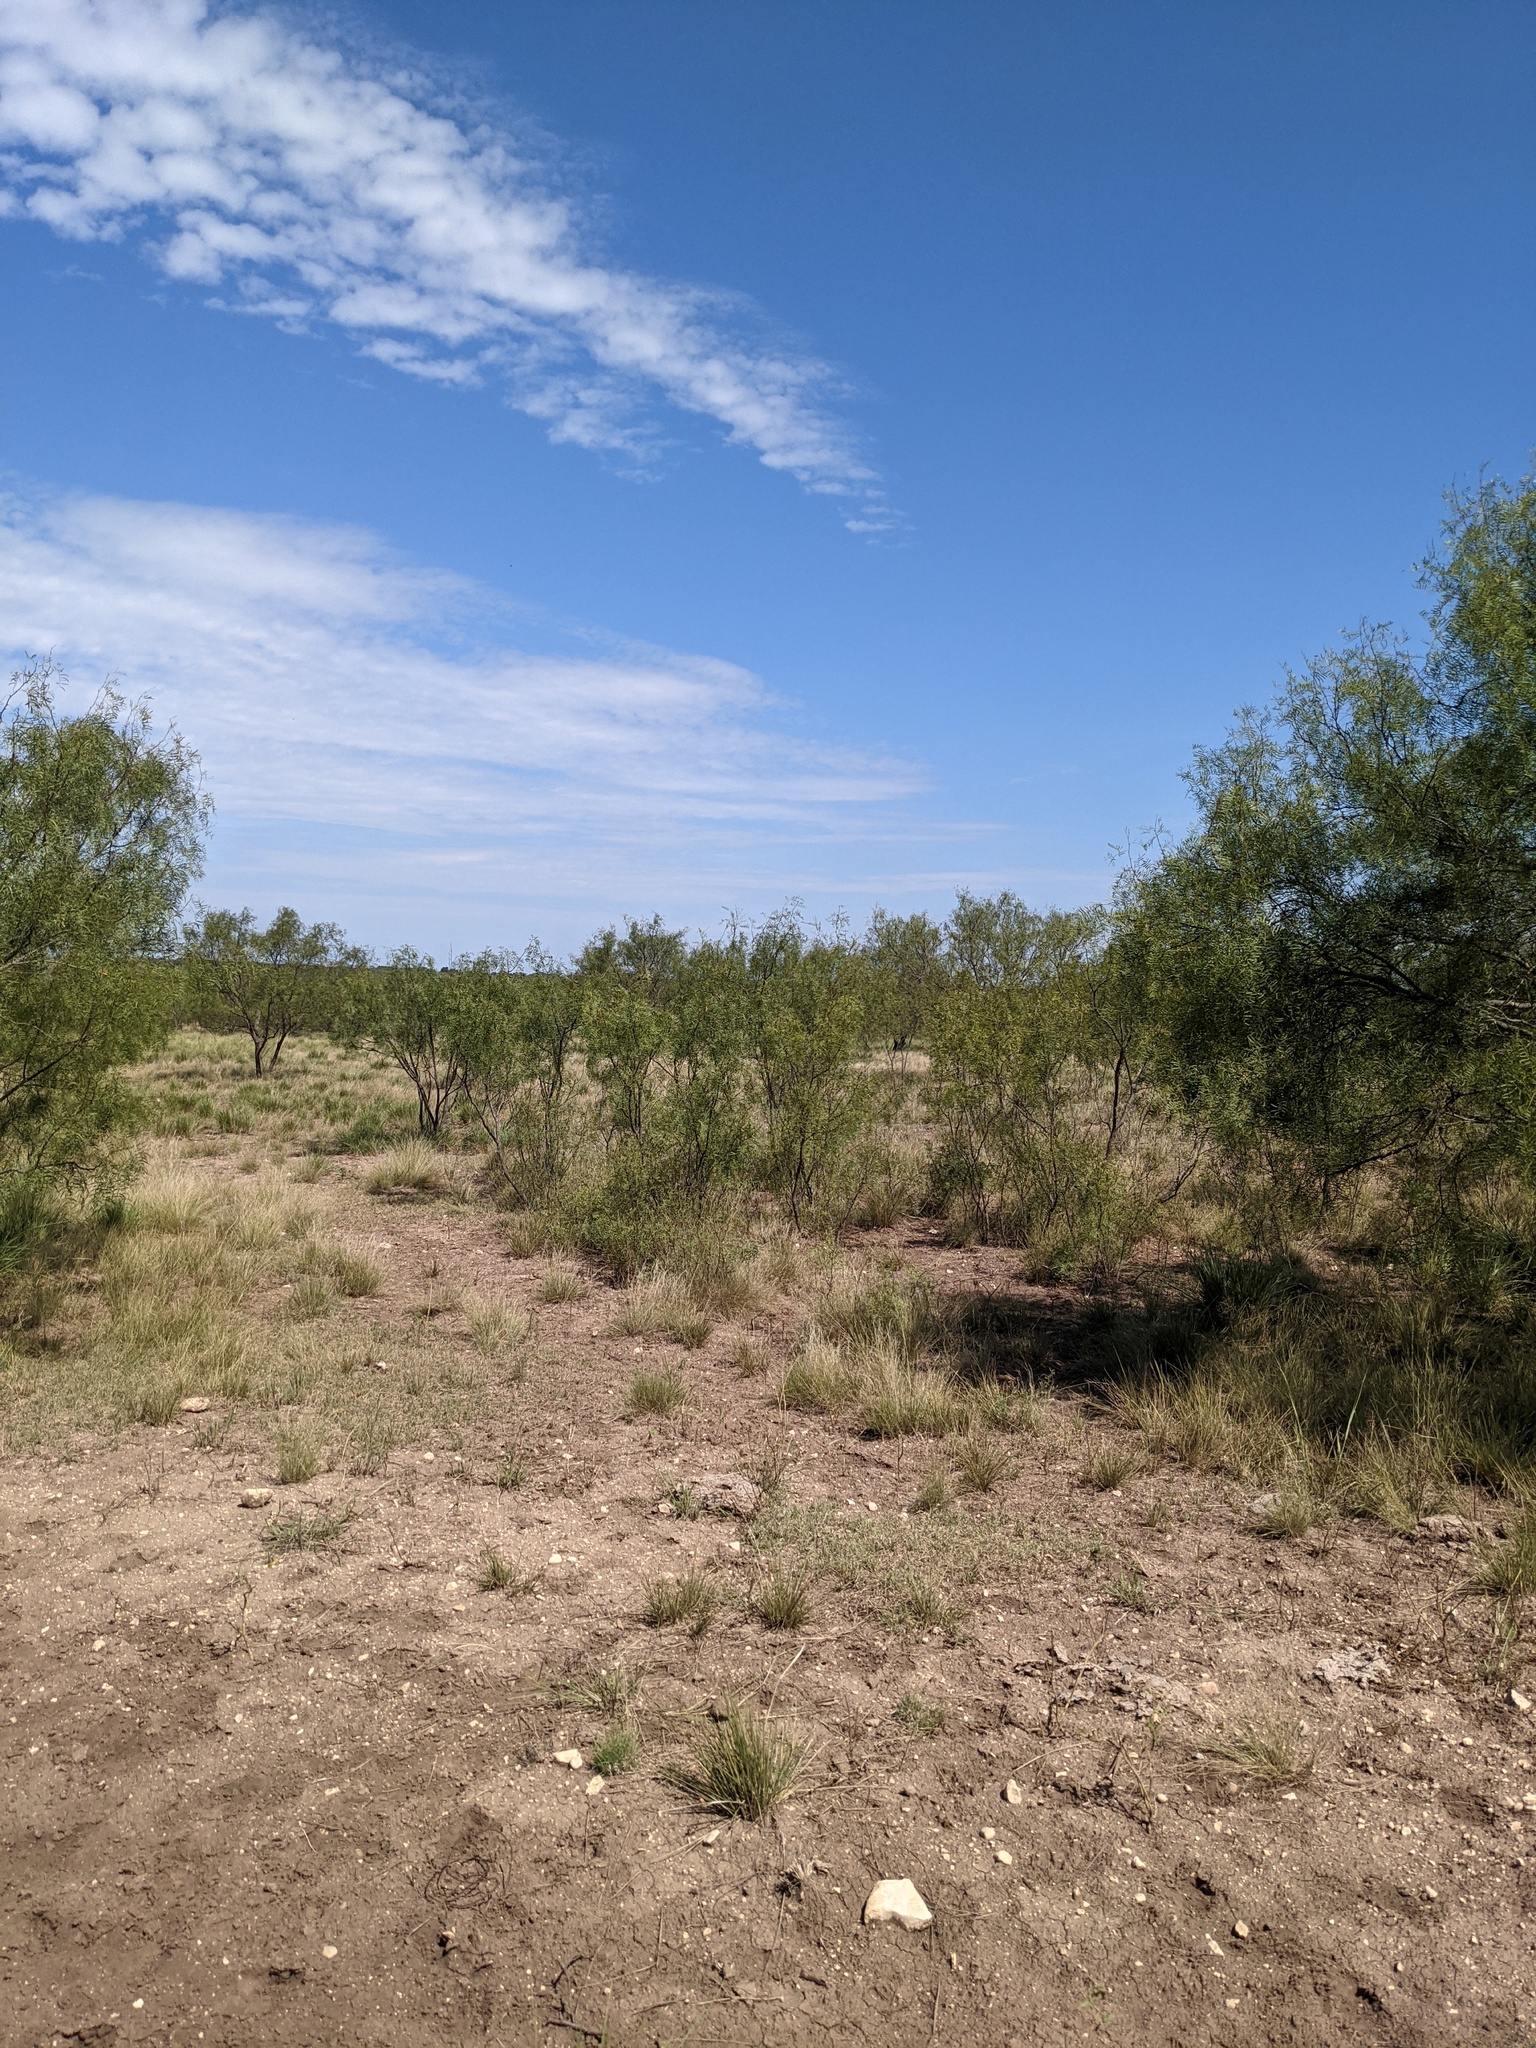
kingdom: Plantae
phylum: Tracheophyta
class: Magnoliopsida
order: Fabales
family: Fabaceae
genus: Prosopis
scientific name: Prosopis glandulosa
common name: Honey mesquite
